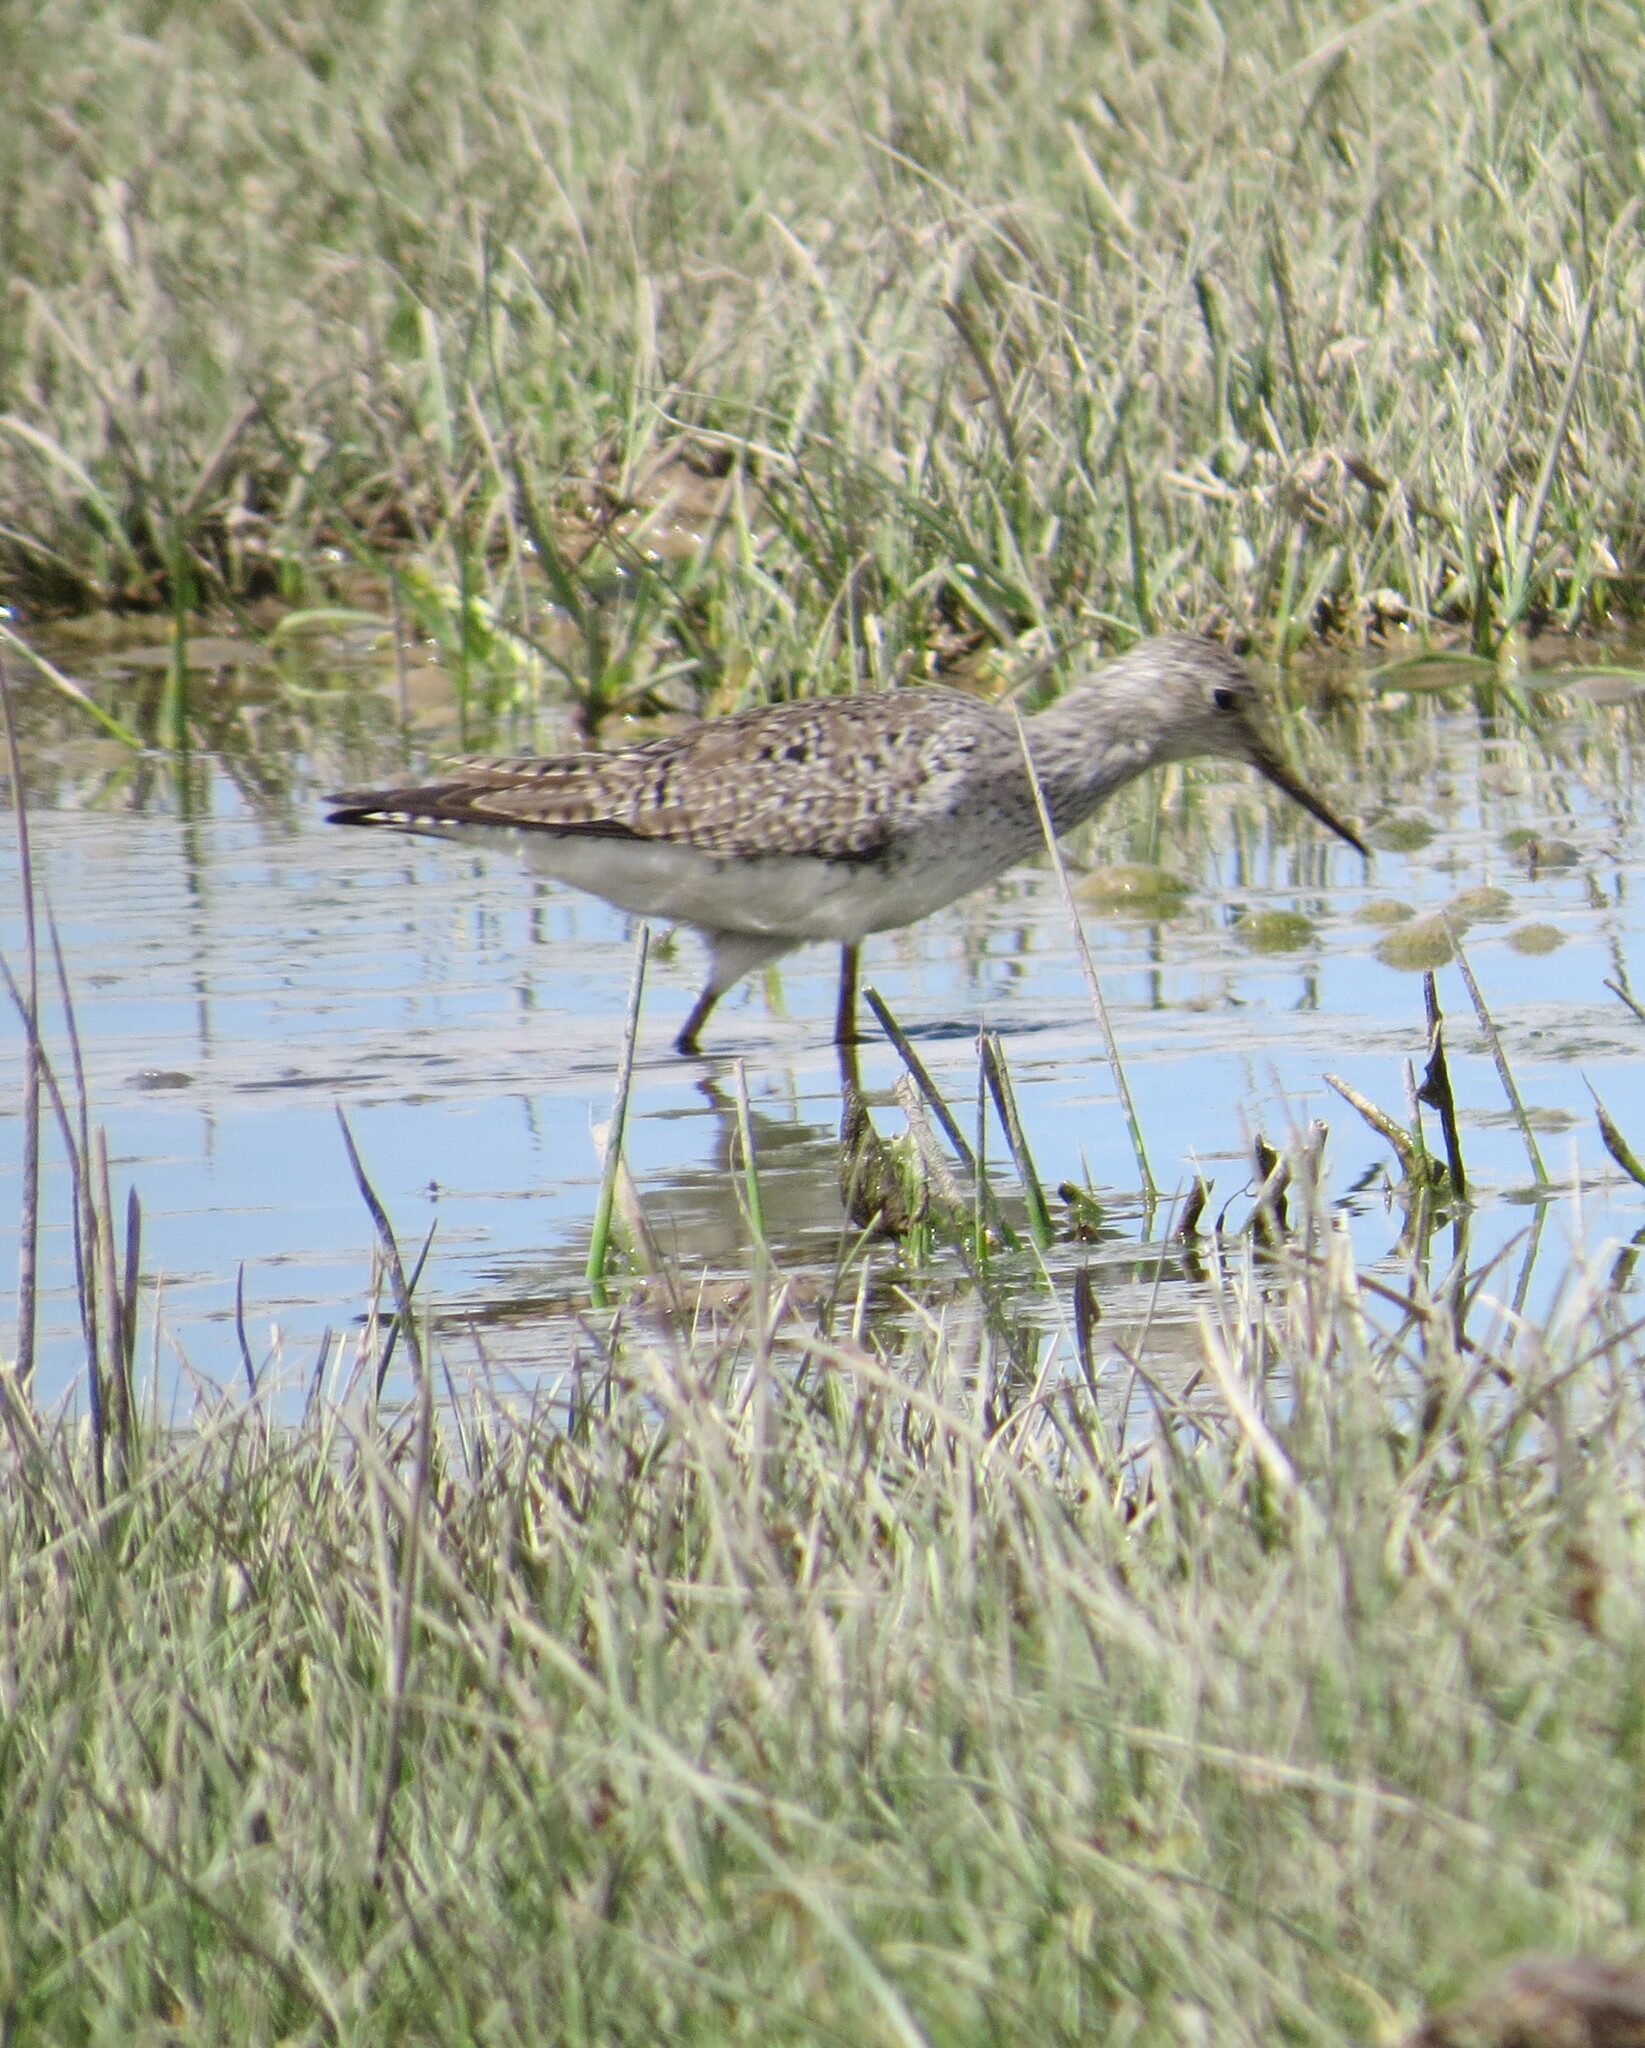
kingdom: Animalia
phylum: Chordata
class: Aves
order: Charadriiformes
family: Scolopacidae
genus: Tringa
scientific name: Tringa flavipes
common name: Lesser yellowlegs
